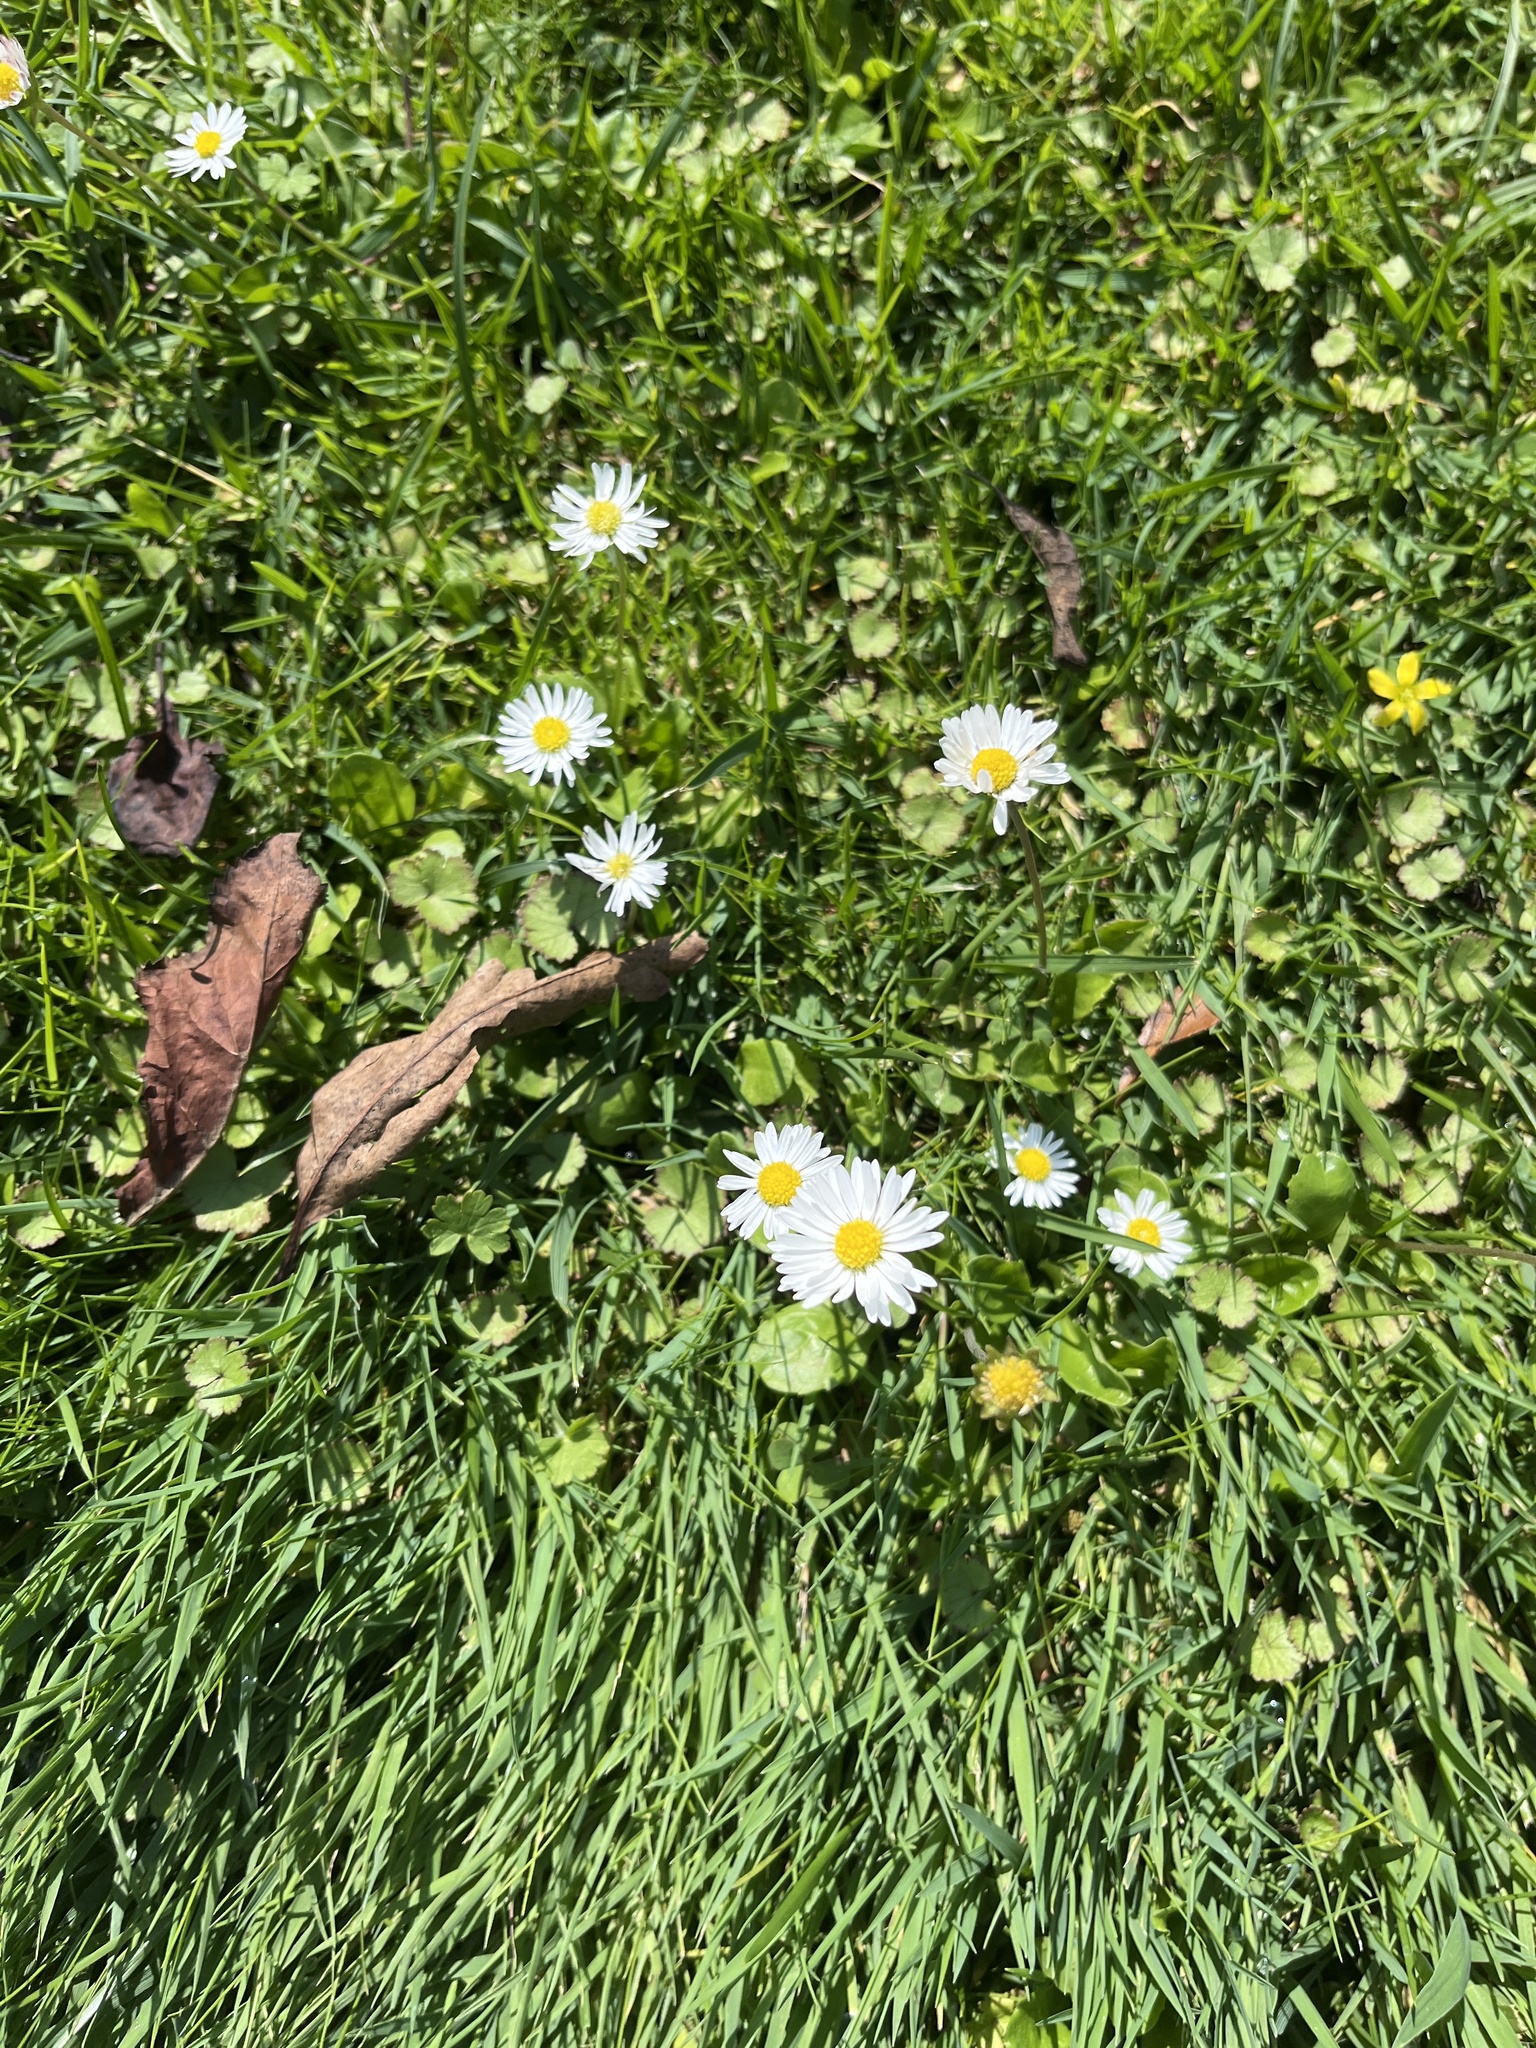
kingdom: Plantae
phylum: Tracheophyta
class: Magnoliopsida
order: Asterales
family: Asteraceae
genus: Bellis
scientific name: Bellis perennis
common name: Lawndaisy
